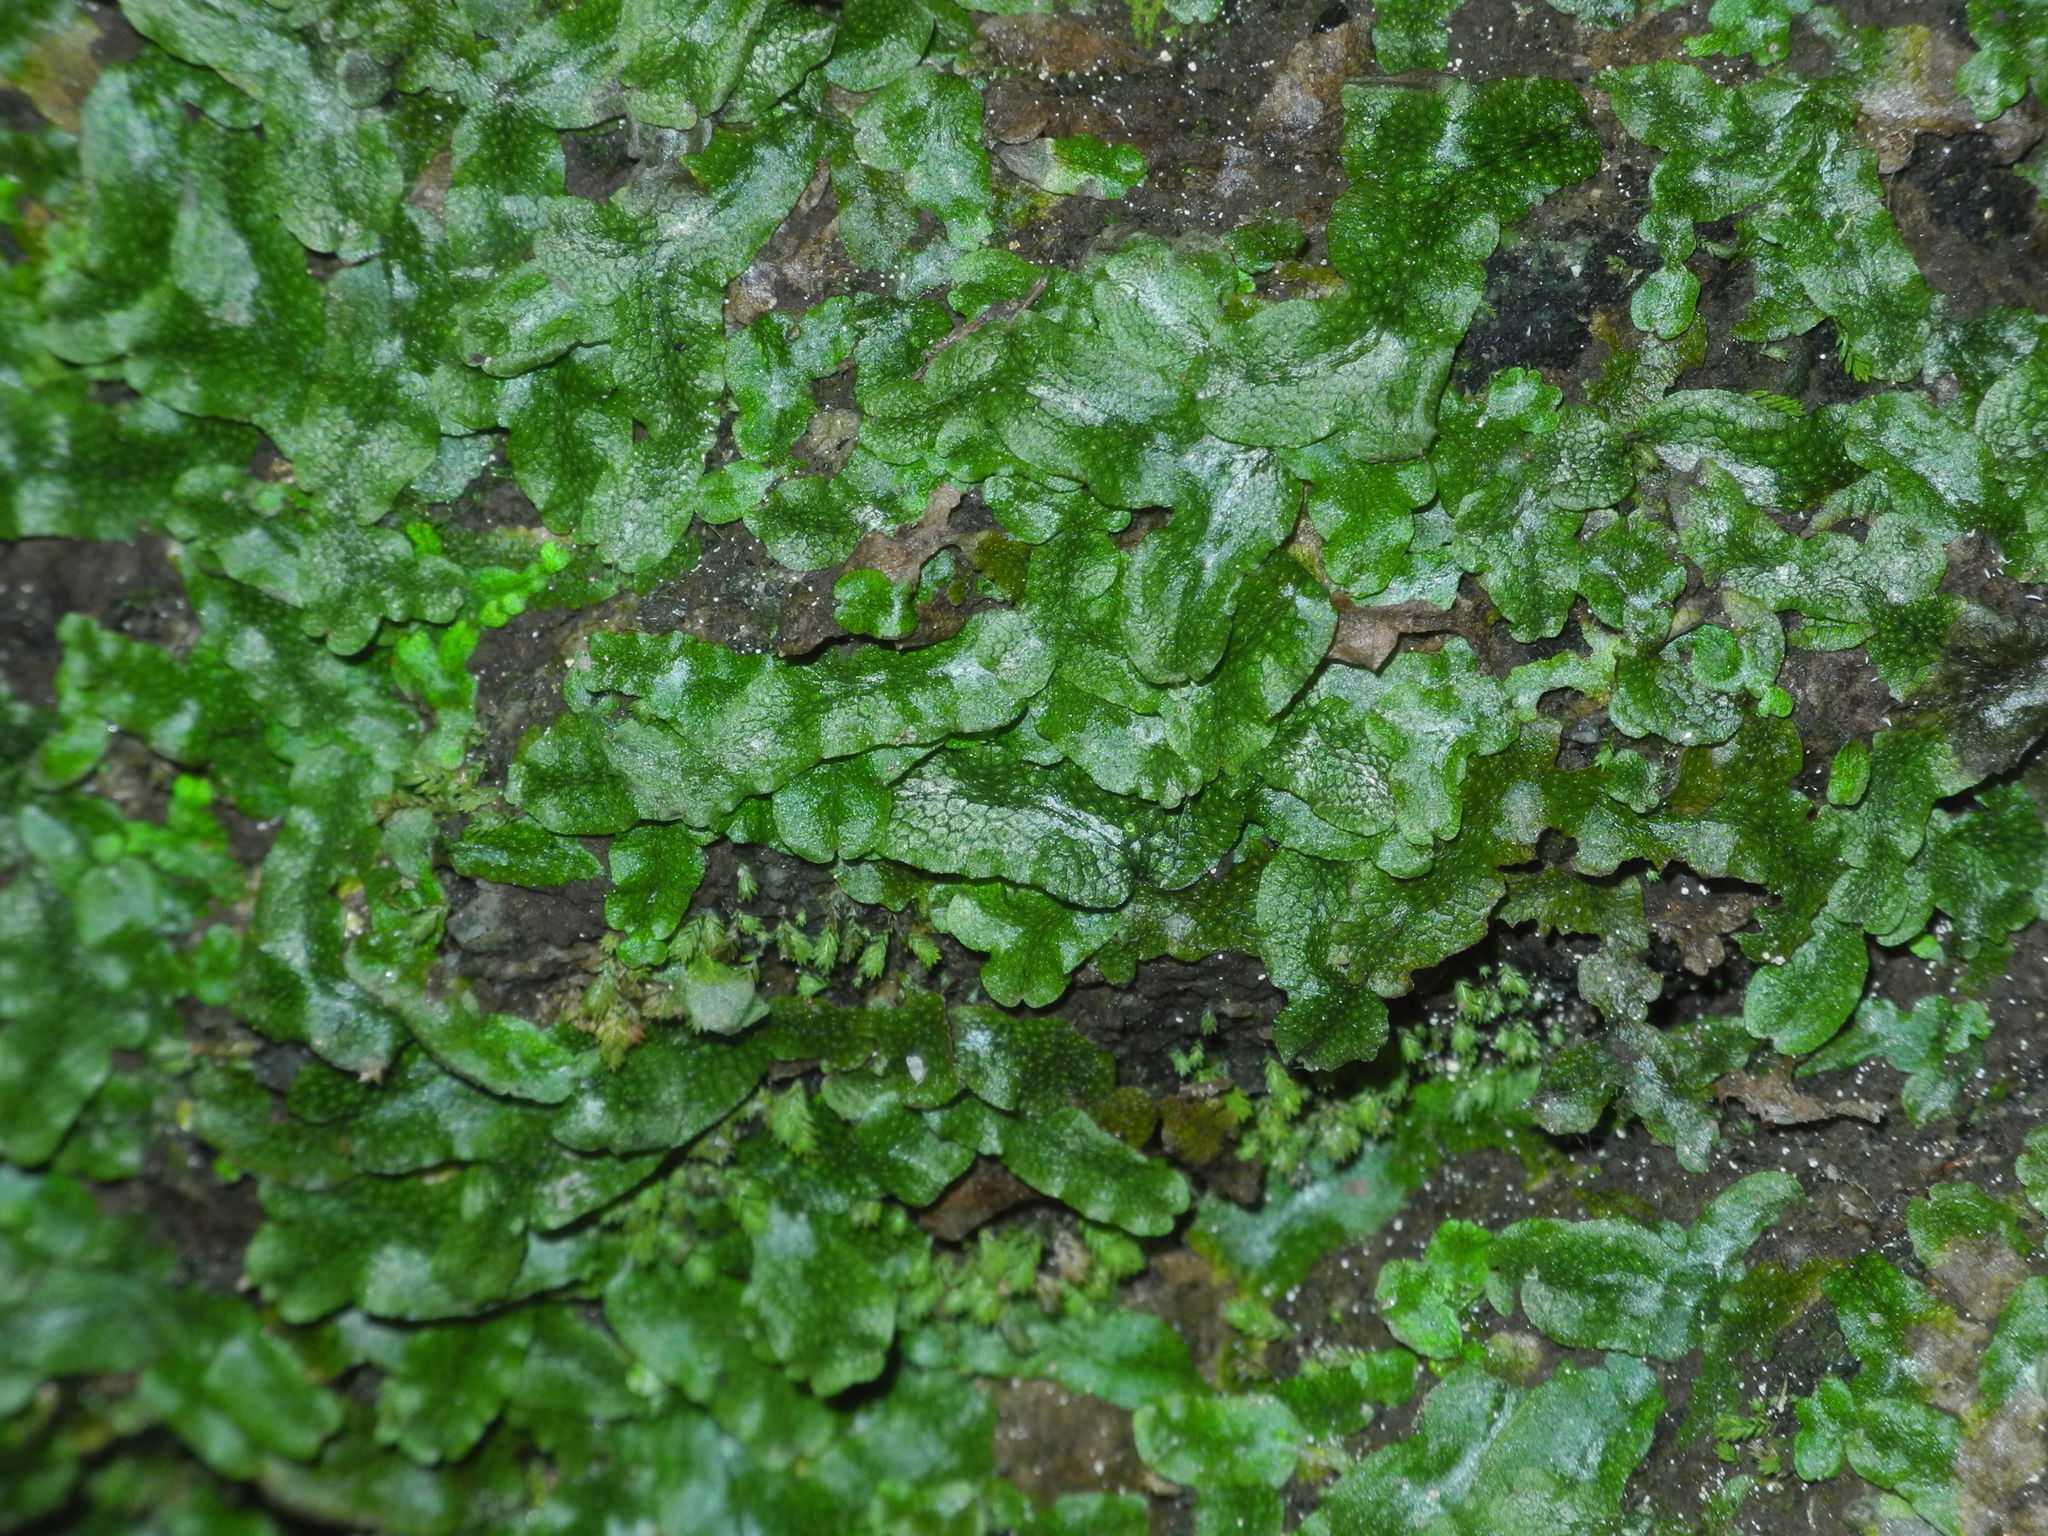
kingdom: Plantae
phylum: Marchantiophyta
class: Marchantiopsida
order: Marchantiales
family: Conocephalaceae
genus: Conocephalum
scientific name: Conocephalum salebrosum
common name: Cat-tongue liverwort
